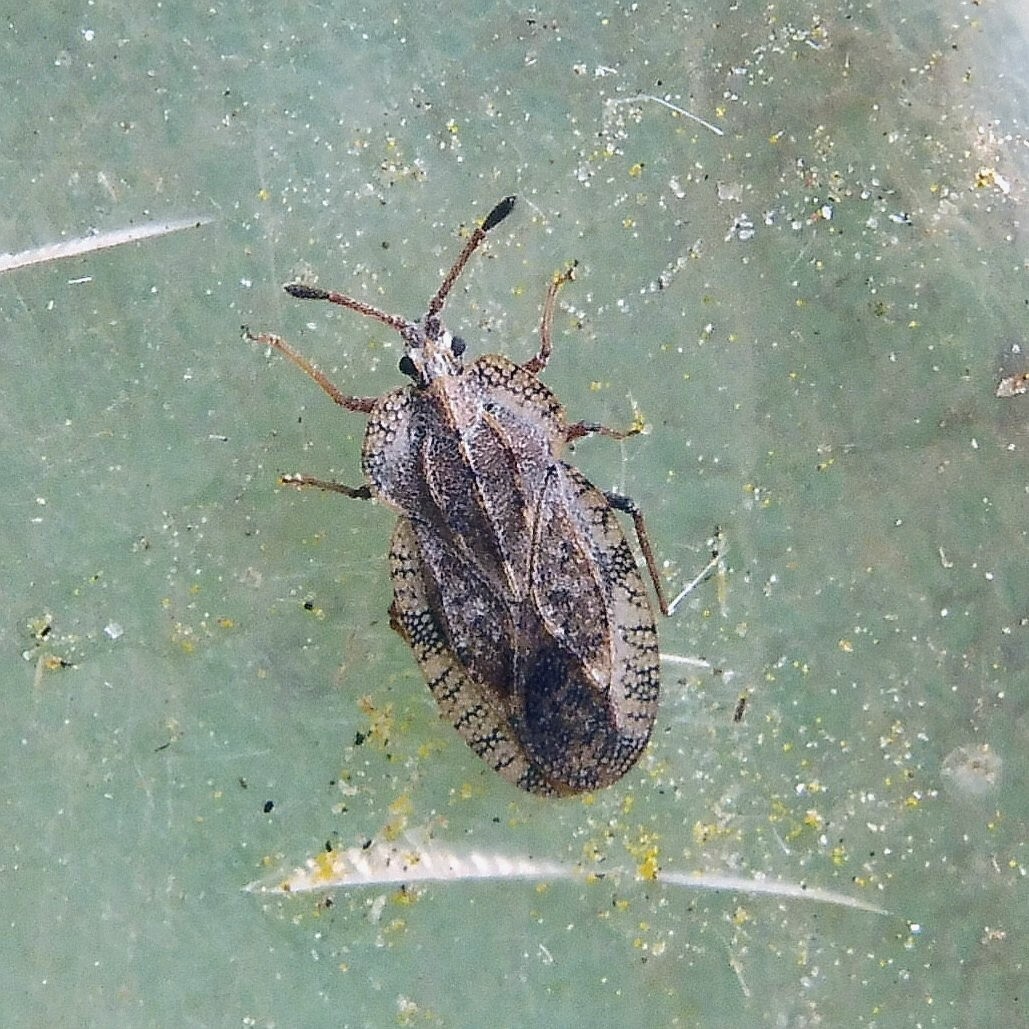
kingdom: Animalia
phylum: Arthropoda
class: Insecta
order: Hemiptera
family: Tingidae
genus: Tingis
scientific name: Tingis ampliata
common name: Creeping thistle lacebug
